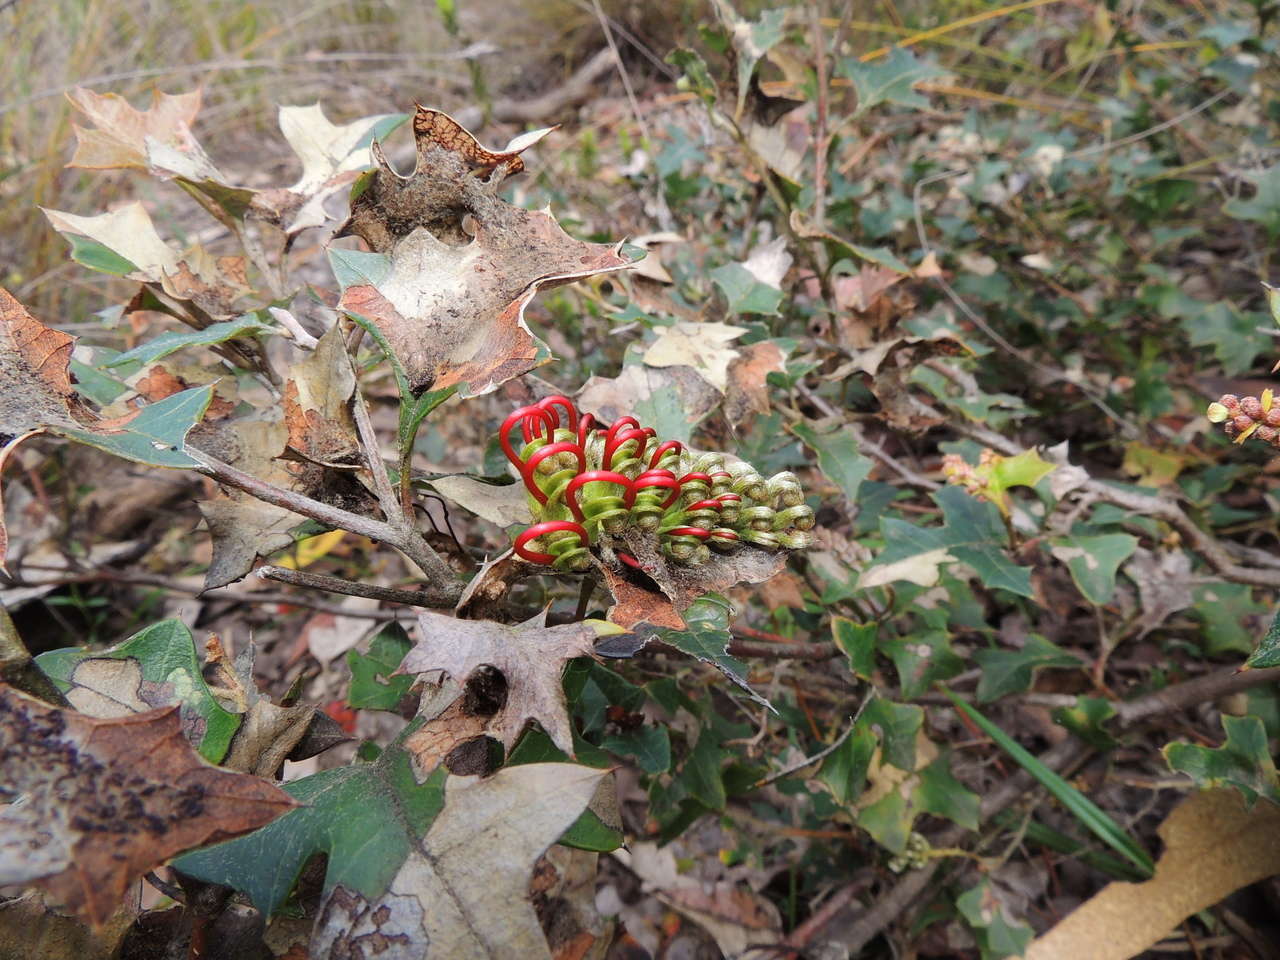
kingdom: Plantae
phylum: Tracheophyta
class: Magnoliopsida
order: Proteales
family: Proteaceae
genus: Grevillea
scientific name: Grevillea steiglitziana
